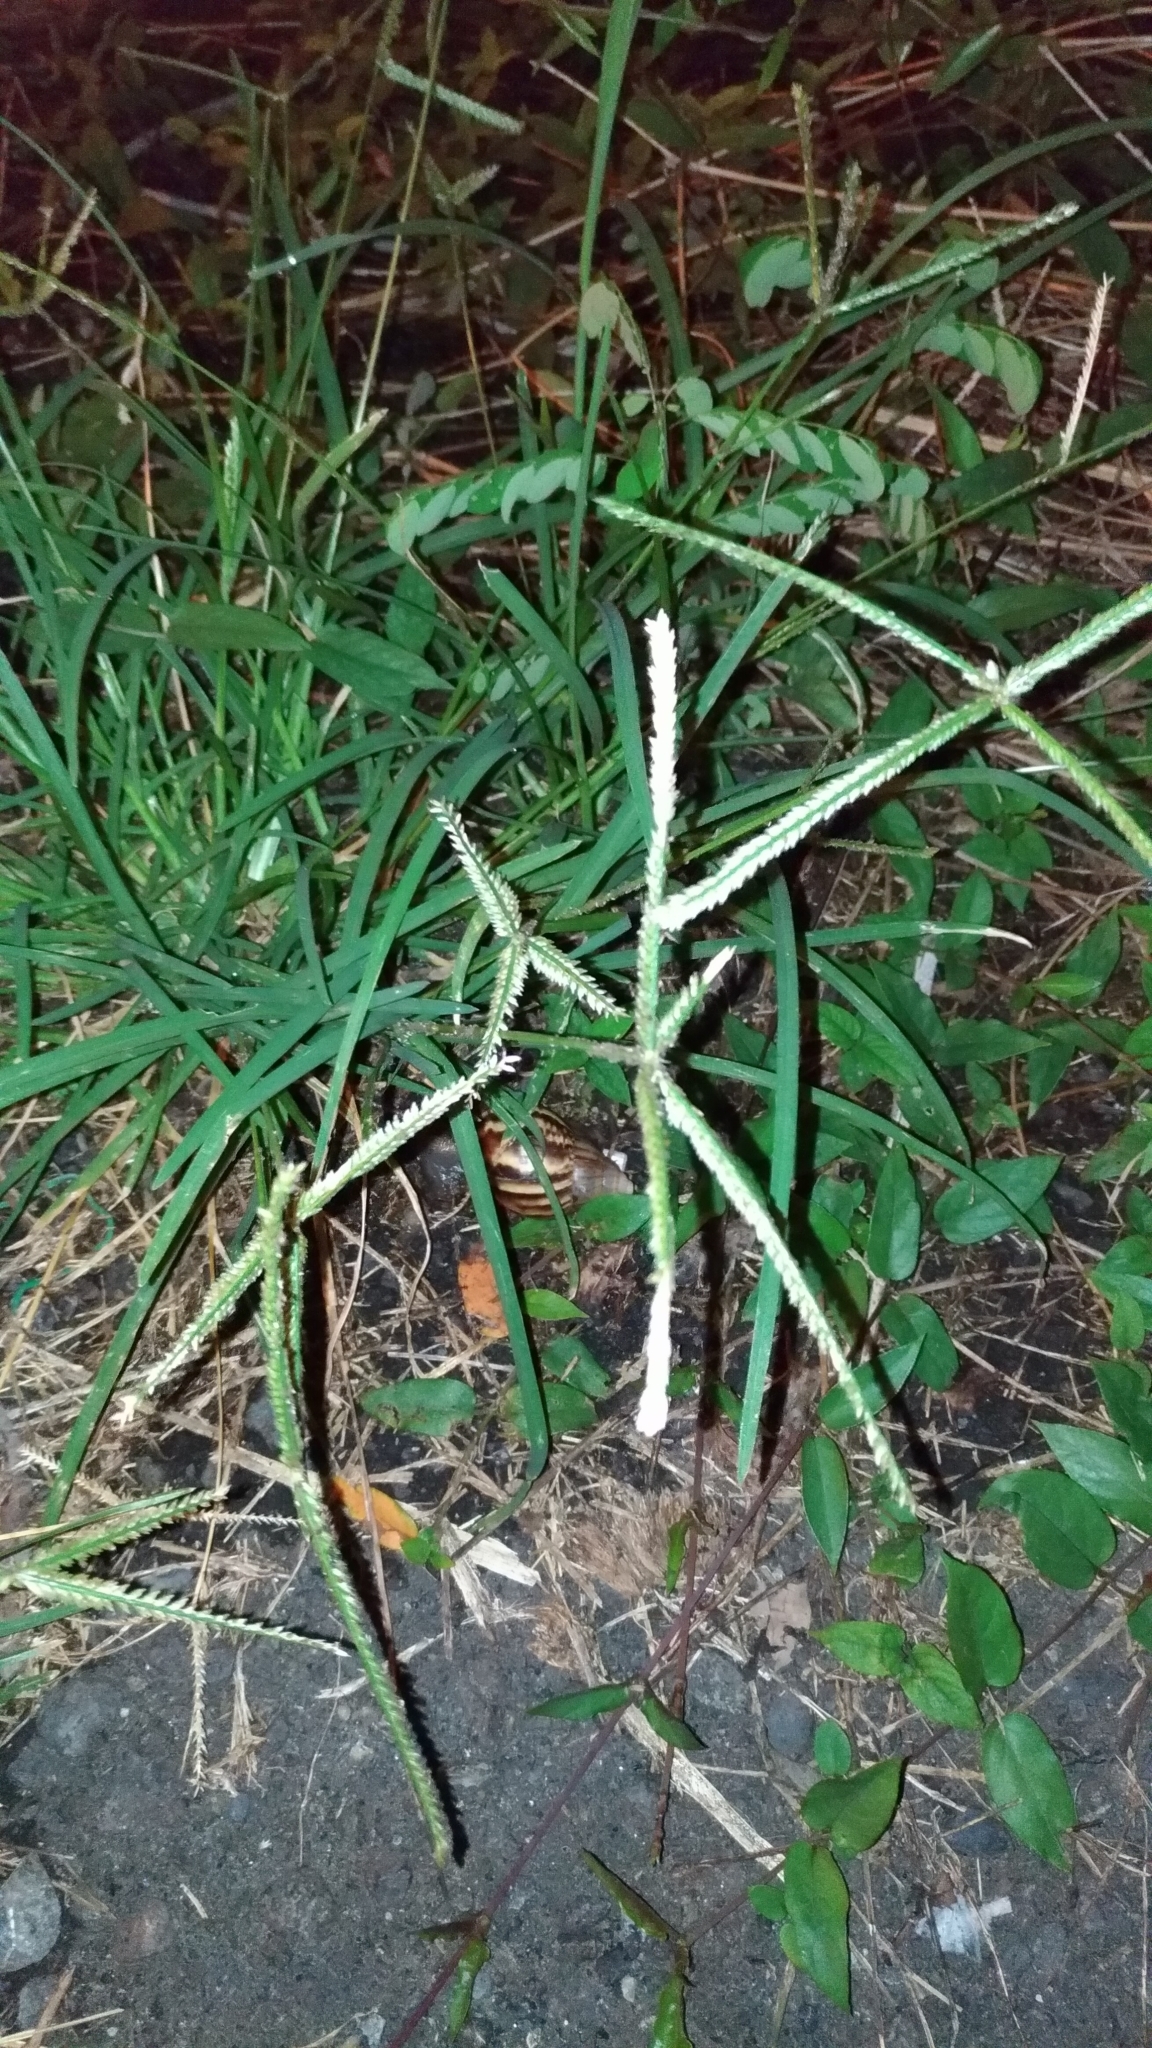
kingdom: Plantae
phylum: Tracheophyta
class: Liliopsida
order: Poales
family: Poaceae
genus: Eleusine
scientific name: Eleusine indica
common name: Yard-grass
